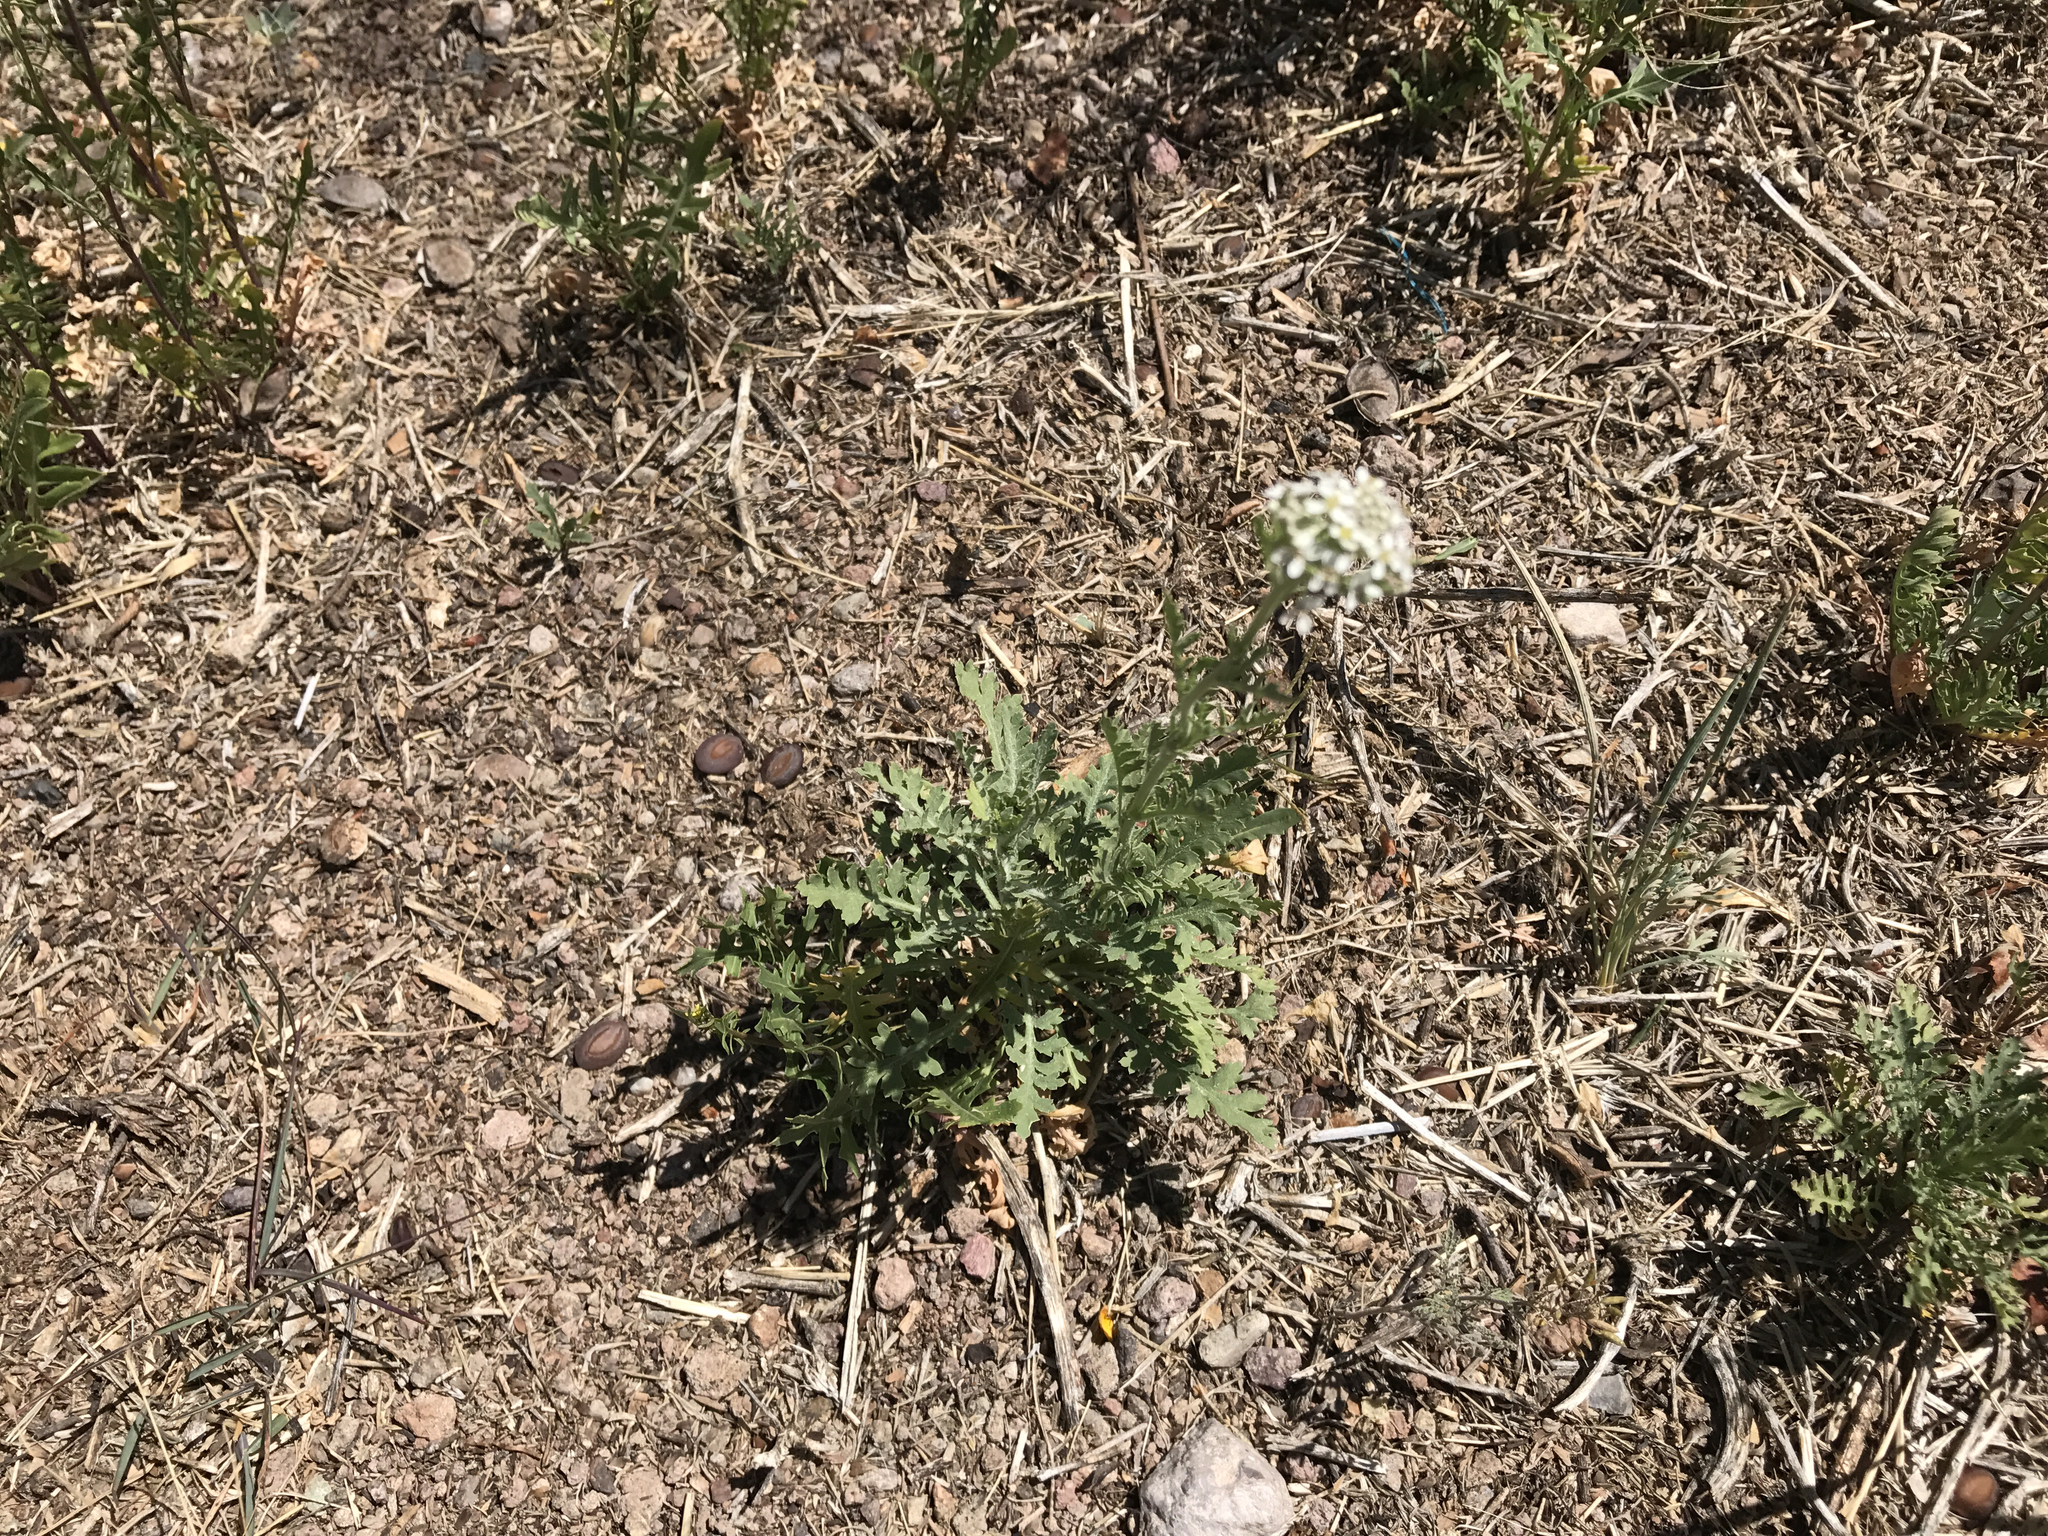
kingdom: Plantae
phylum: Tracheophyta
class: Magnoliopsida
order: Brassicales
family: Brassicaceae
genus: Lepidium
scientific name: Lepidium thurberi
